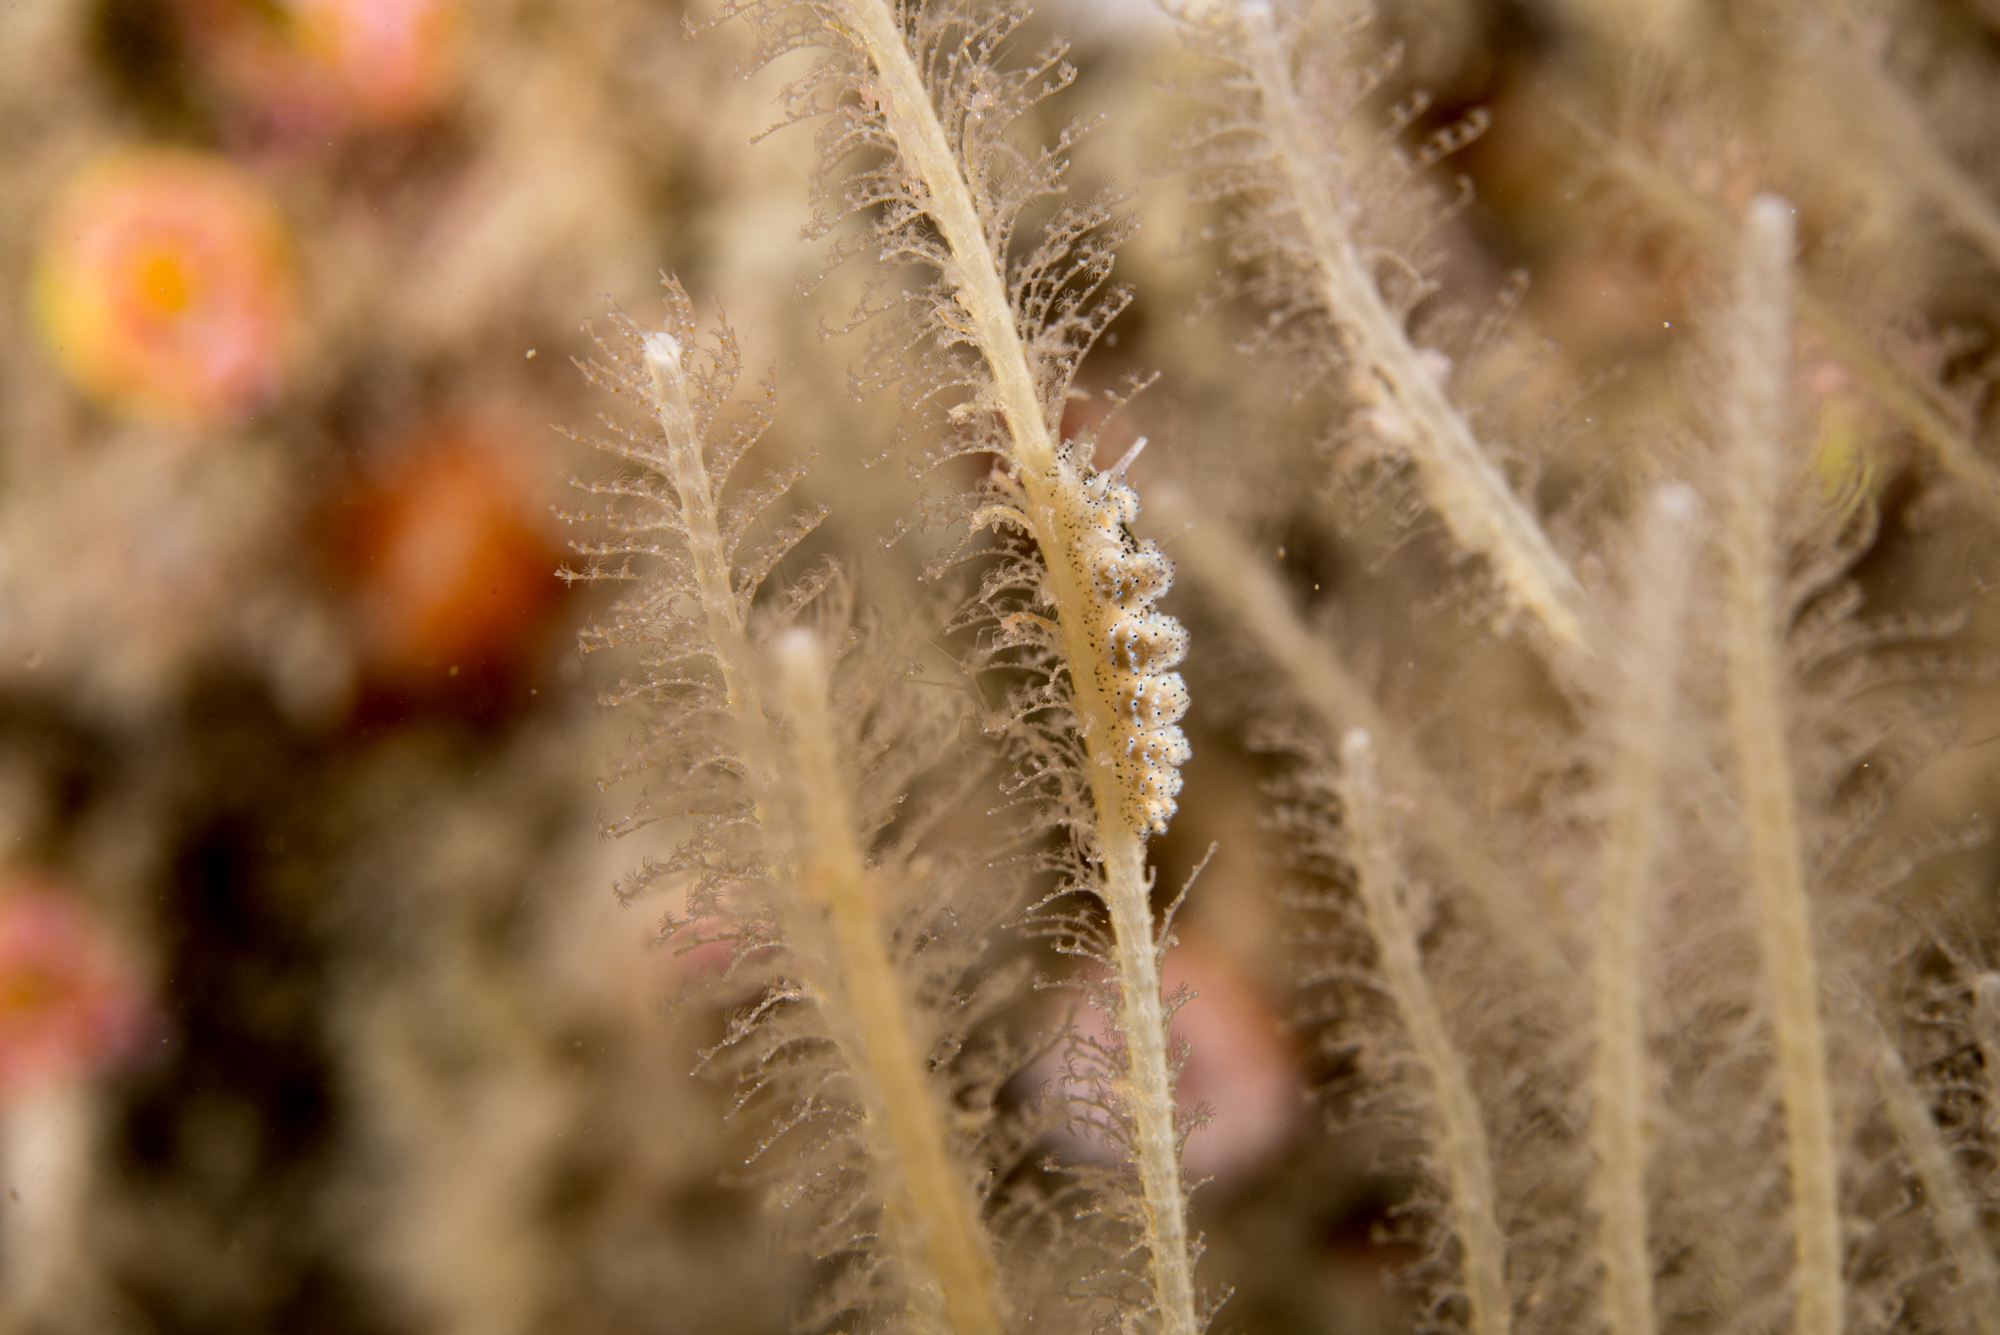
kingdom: Animalia
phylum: Mollusca
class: Gastropoda
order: Nudibranchia
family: Dotidae
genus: Doto
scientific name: Doto pinnatifida
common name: Feathered doto
